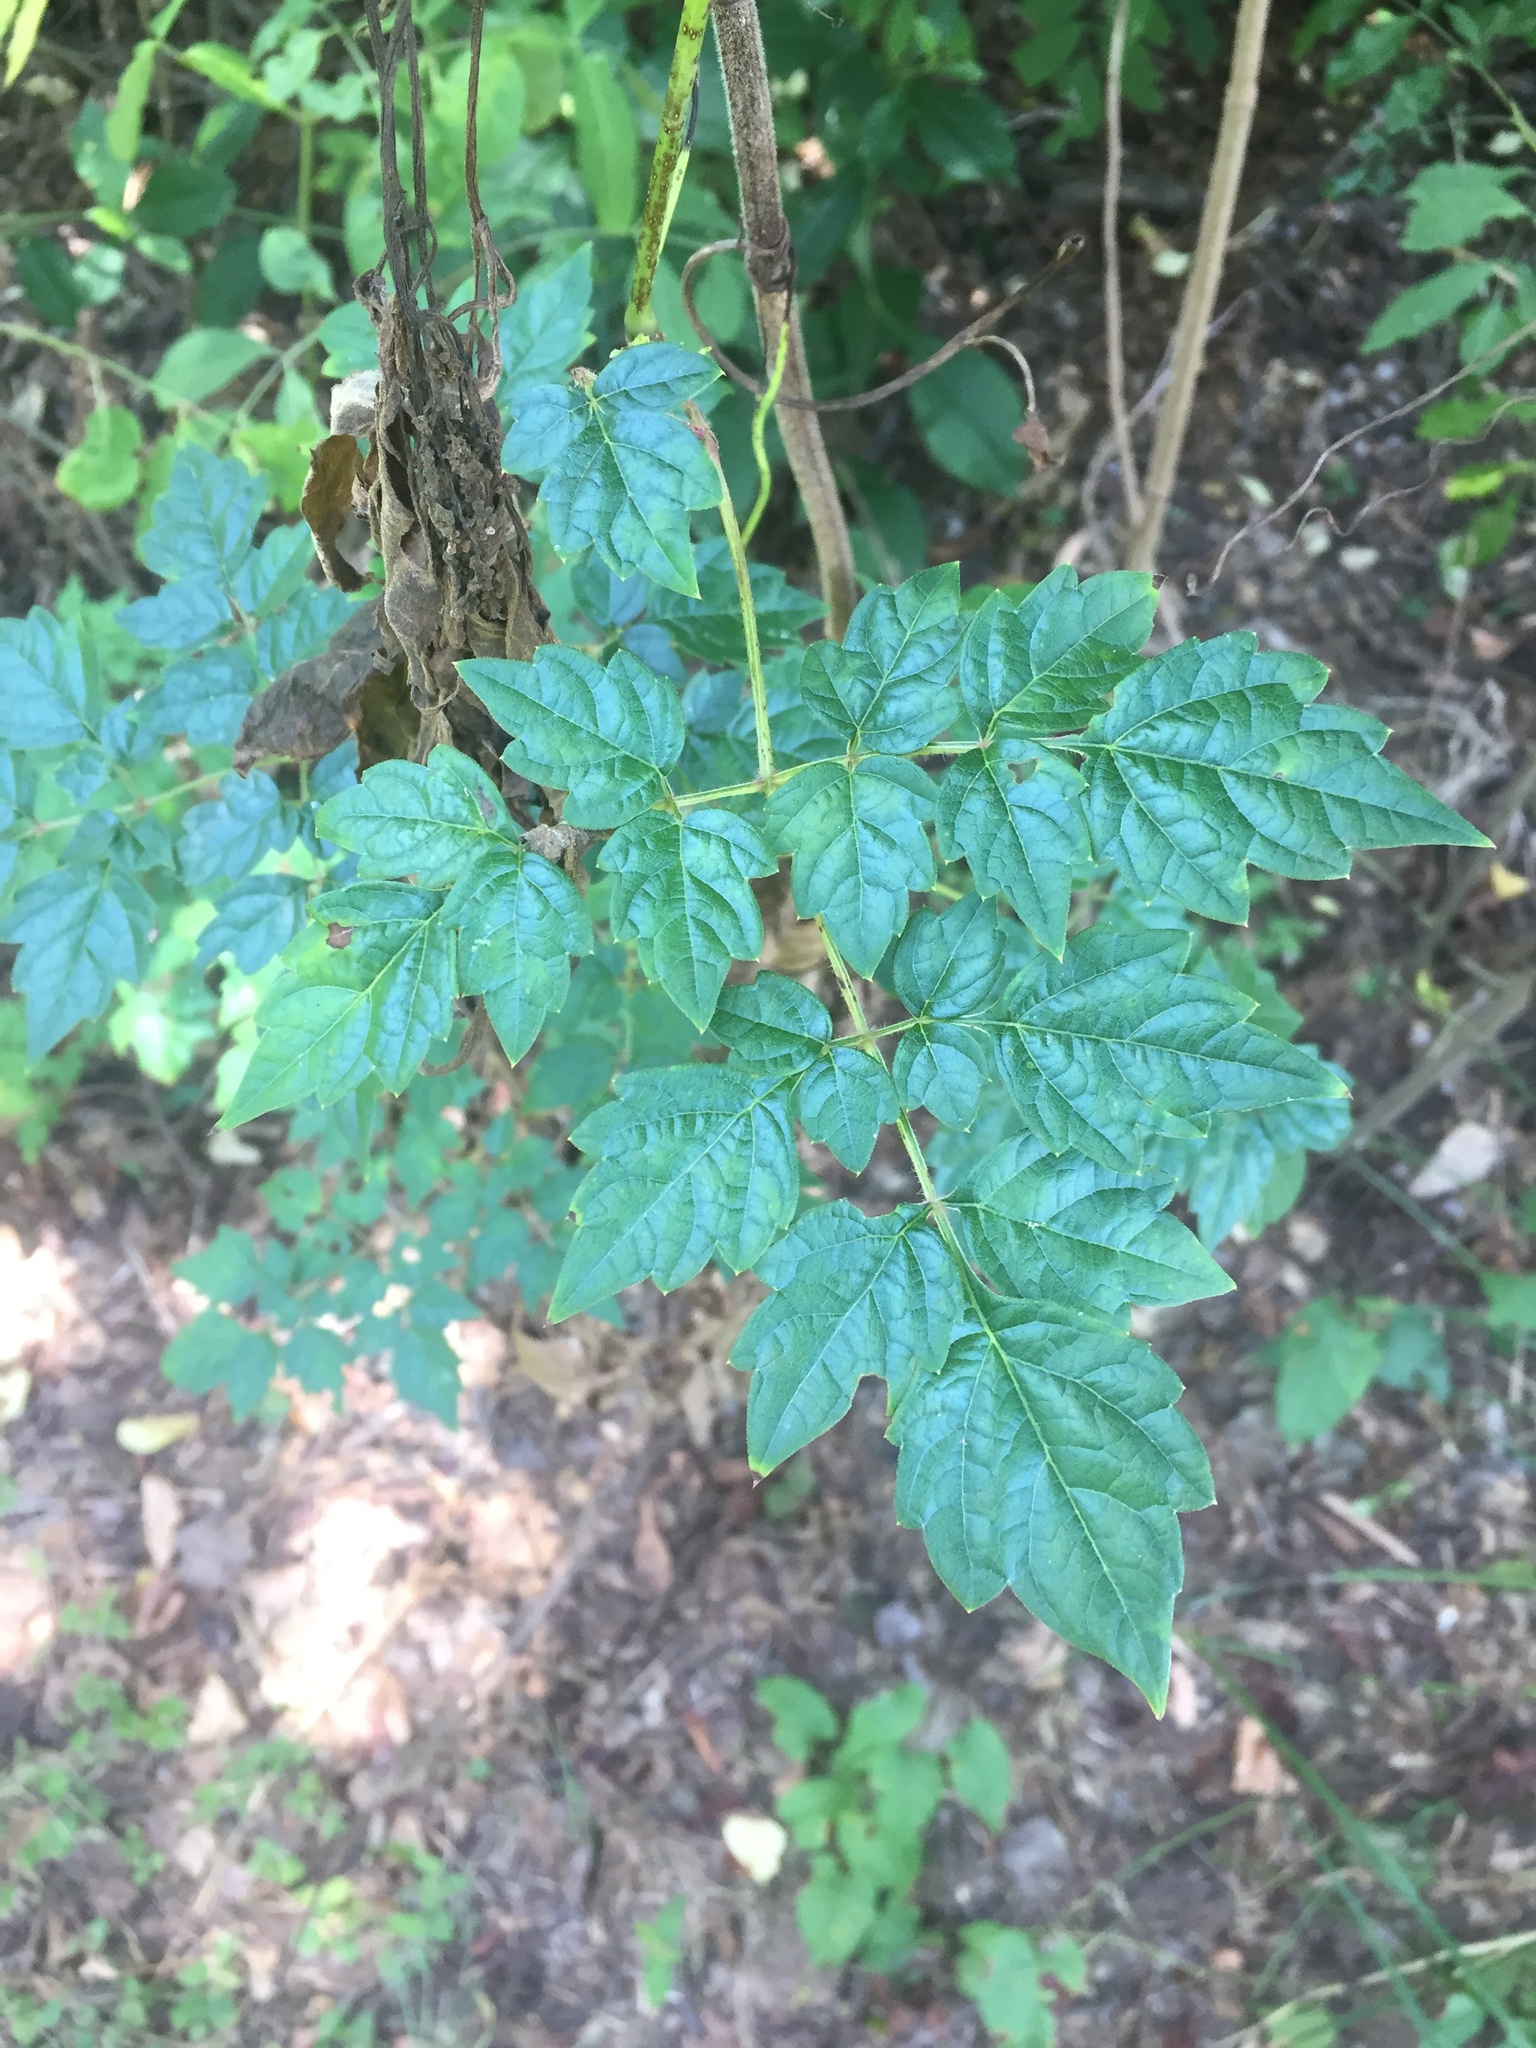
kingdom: Plantae
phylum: Tracheophyta
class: Magnoliopsida
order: Vitales
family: Vitaceae
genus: Nekemias
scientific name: Nekemias arborea
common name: Peppervine
